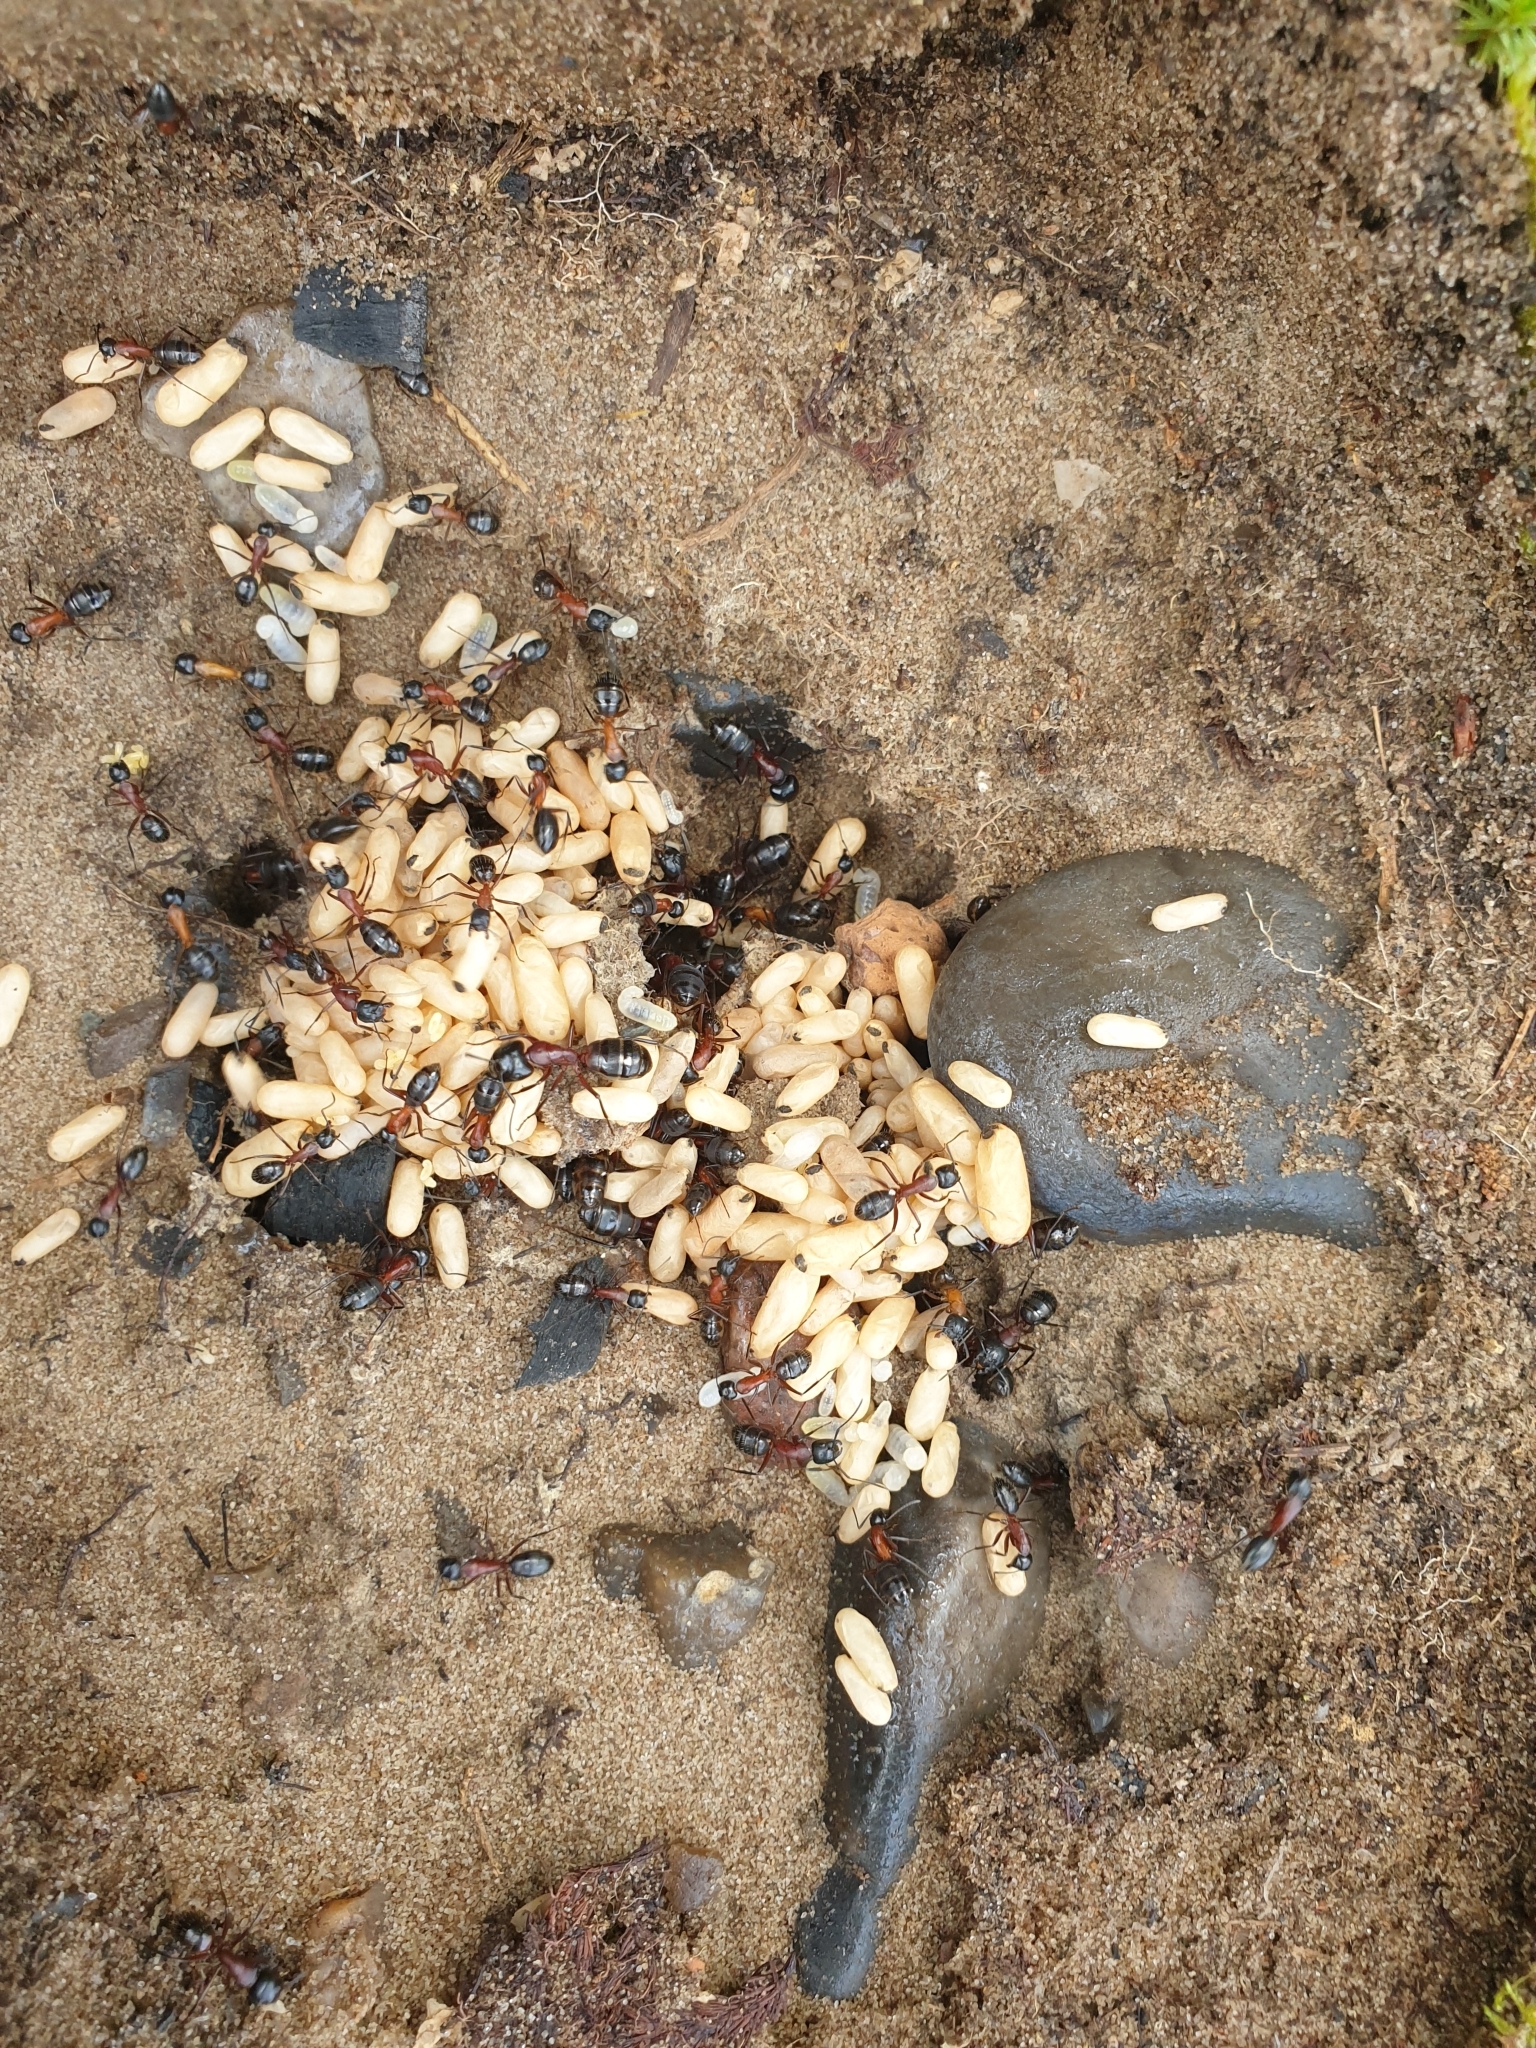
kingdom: Animalia
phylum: Arthropoda
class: Insecta
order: Hymenoptera
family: Formicidae
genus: Camponotus
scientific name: Camponotus ligniperdus
